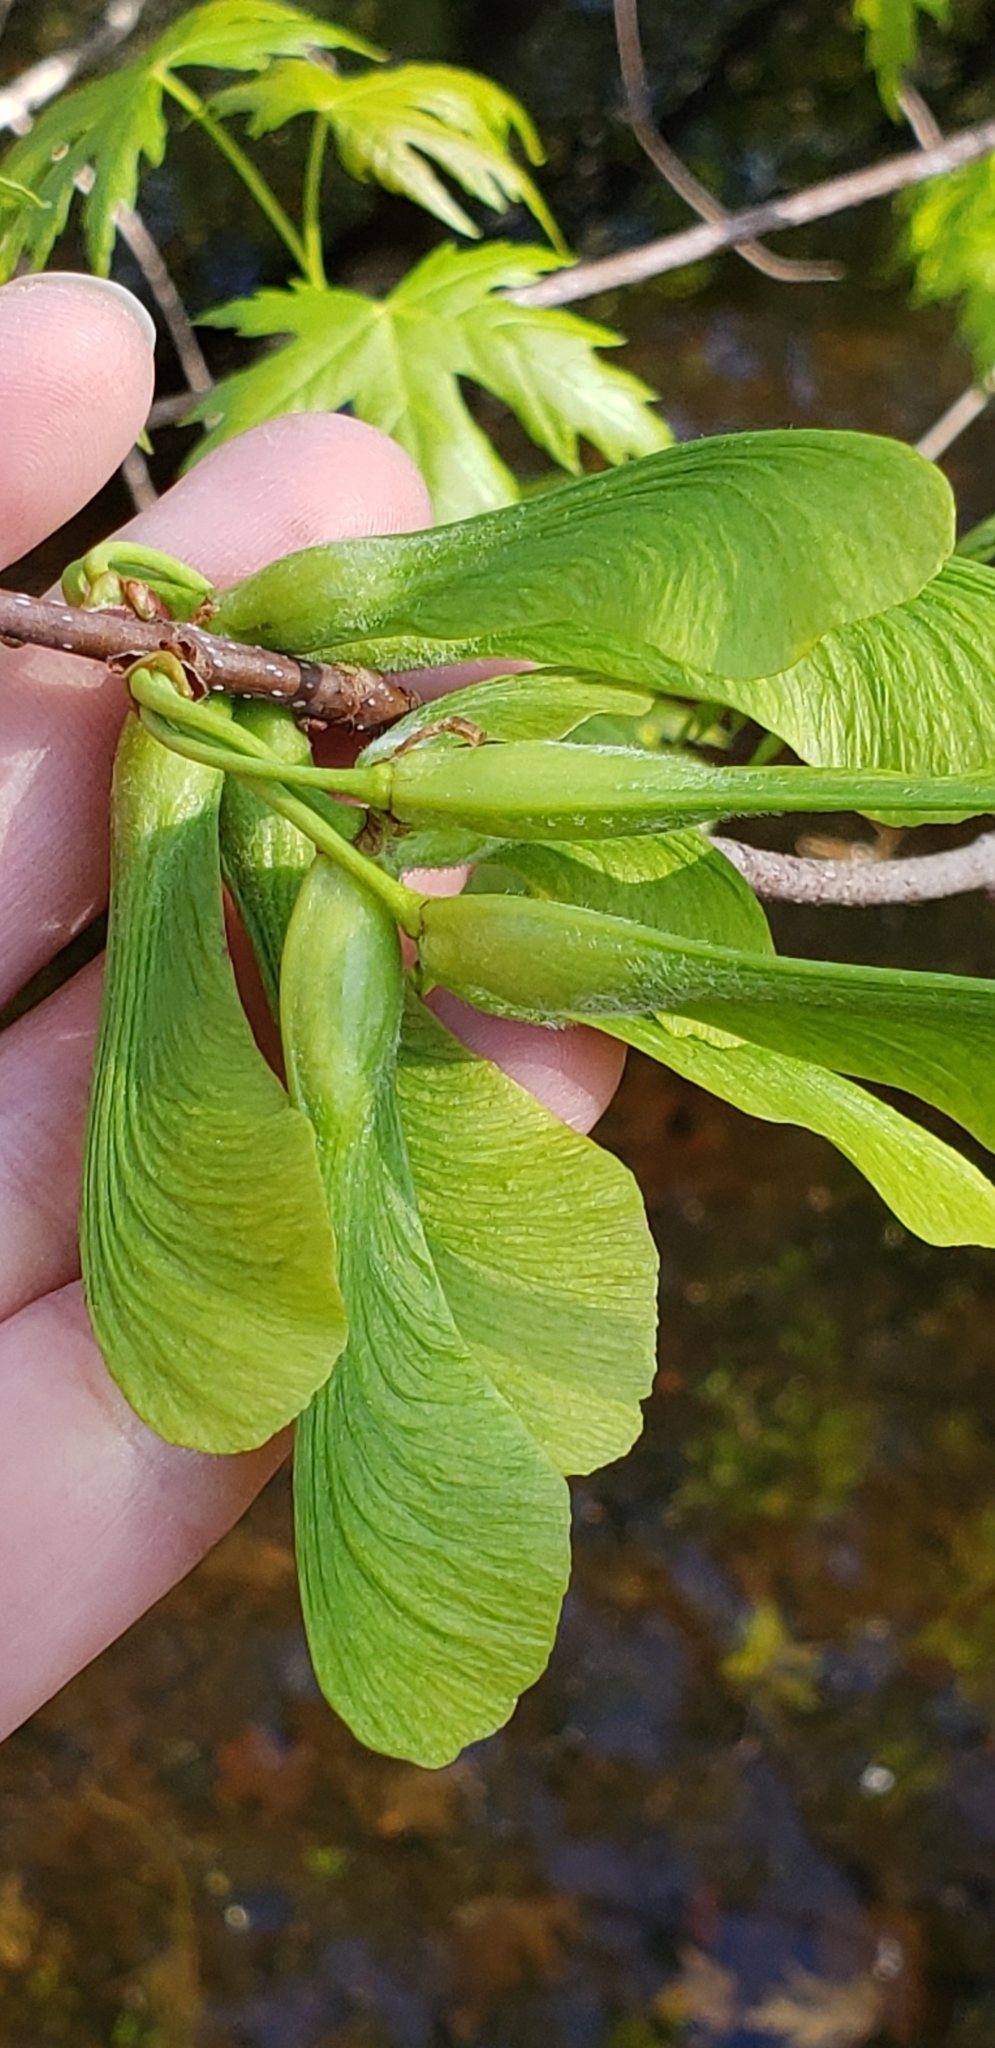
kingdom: Plantae
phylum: Tracheophyta
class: Magnoliopsida
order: Sapindales
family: Sapindaceae
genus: Acer
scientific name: Acer saccharinum
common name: Silver maple
